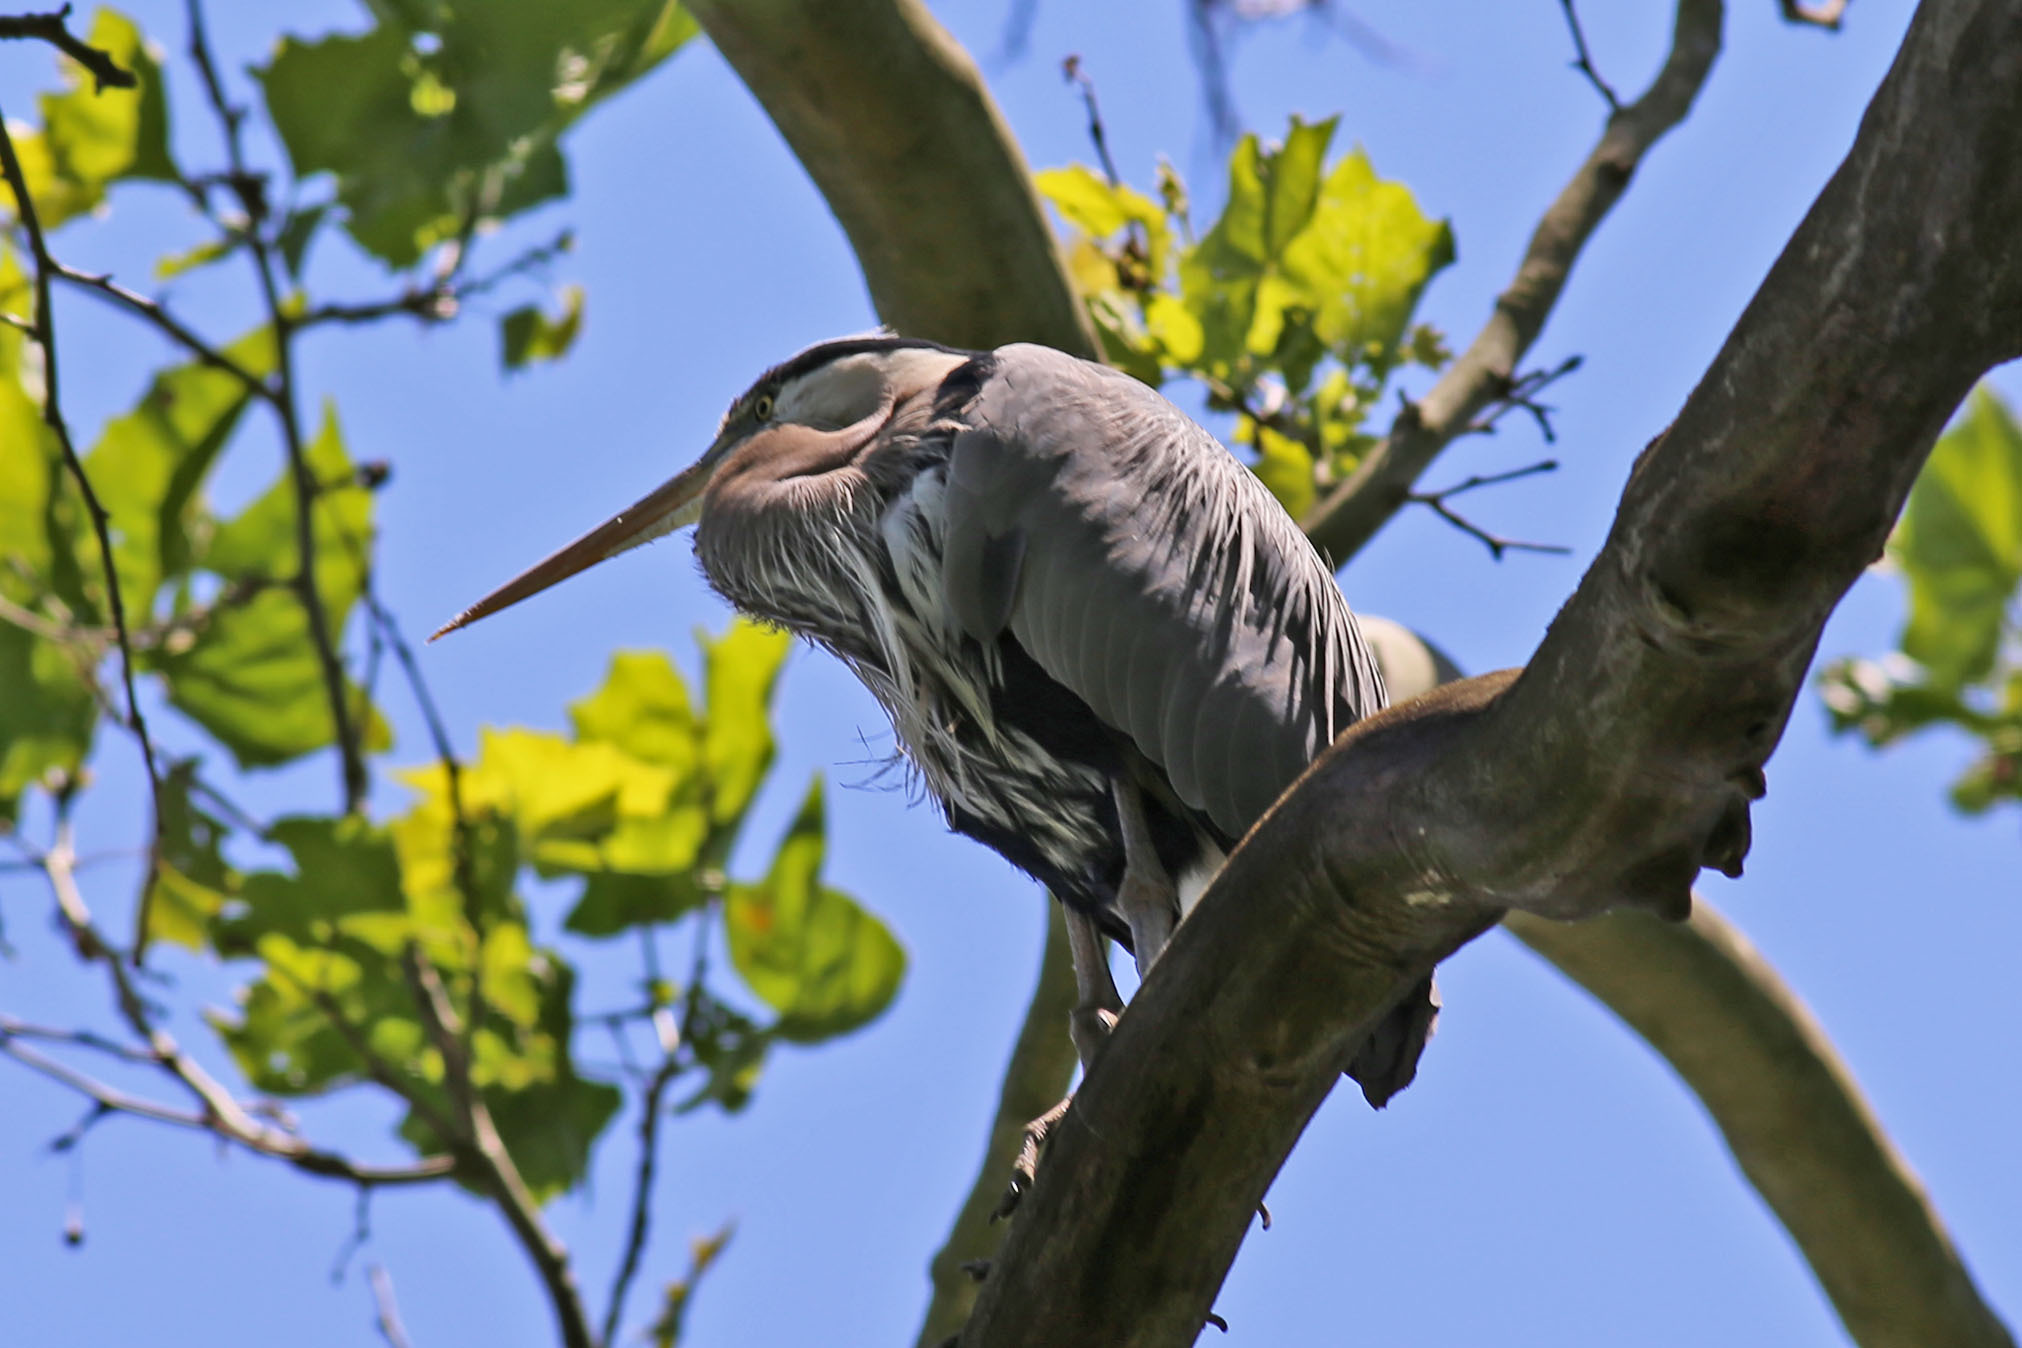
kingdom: Animalia
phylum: Chordata
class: Aves
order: Pelecaniformes
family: Ardeidae
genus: Ardea
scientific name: Ardea herodias
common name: Great blue heron
